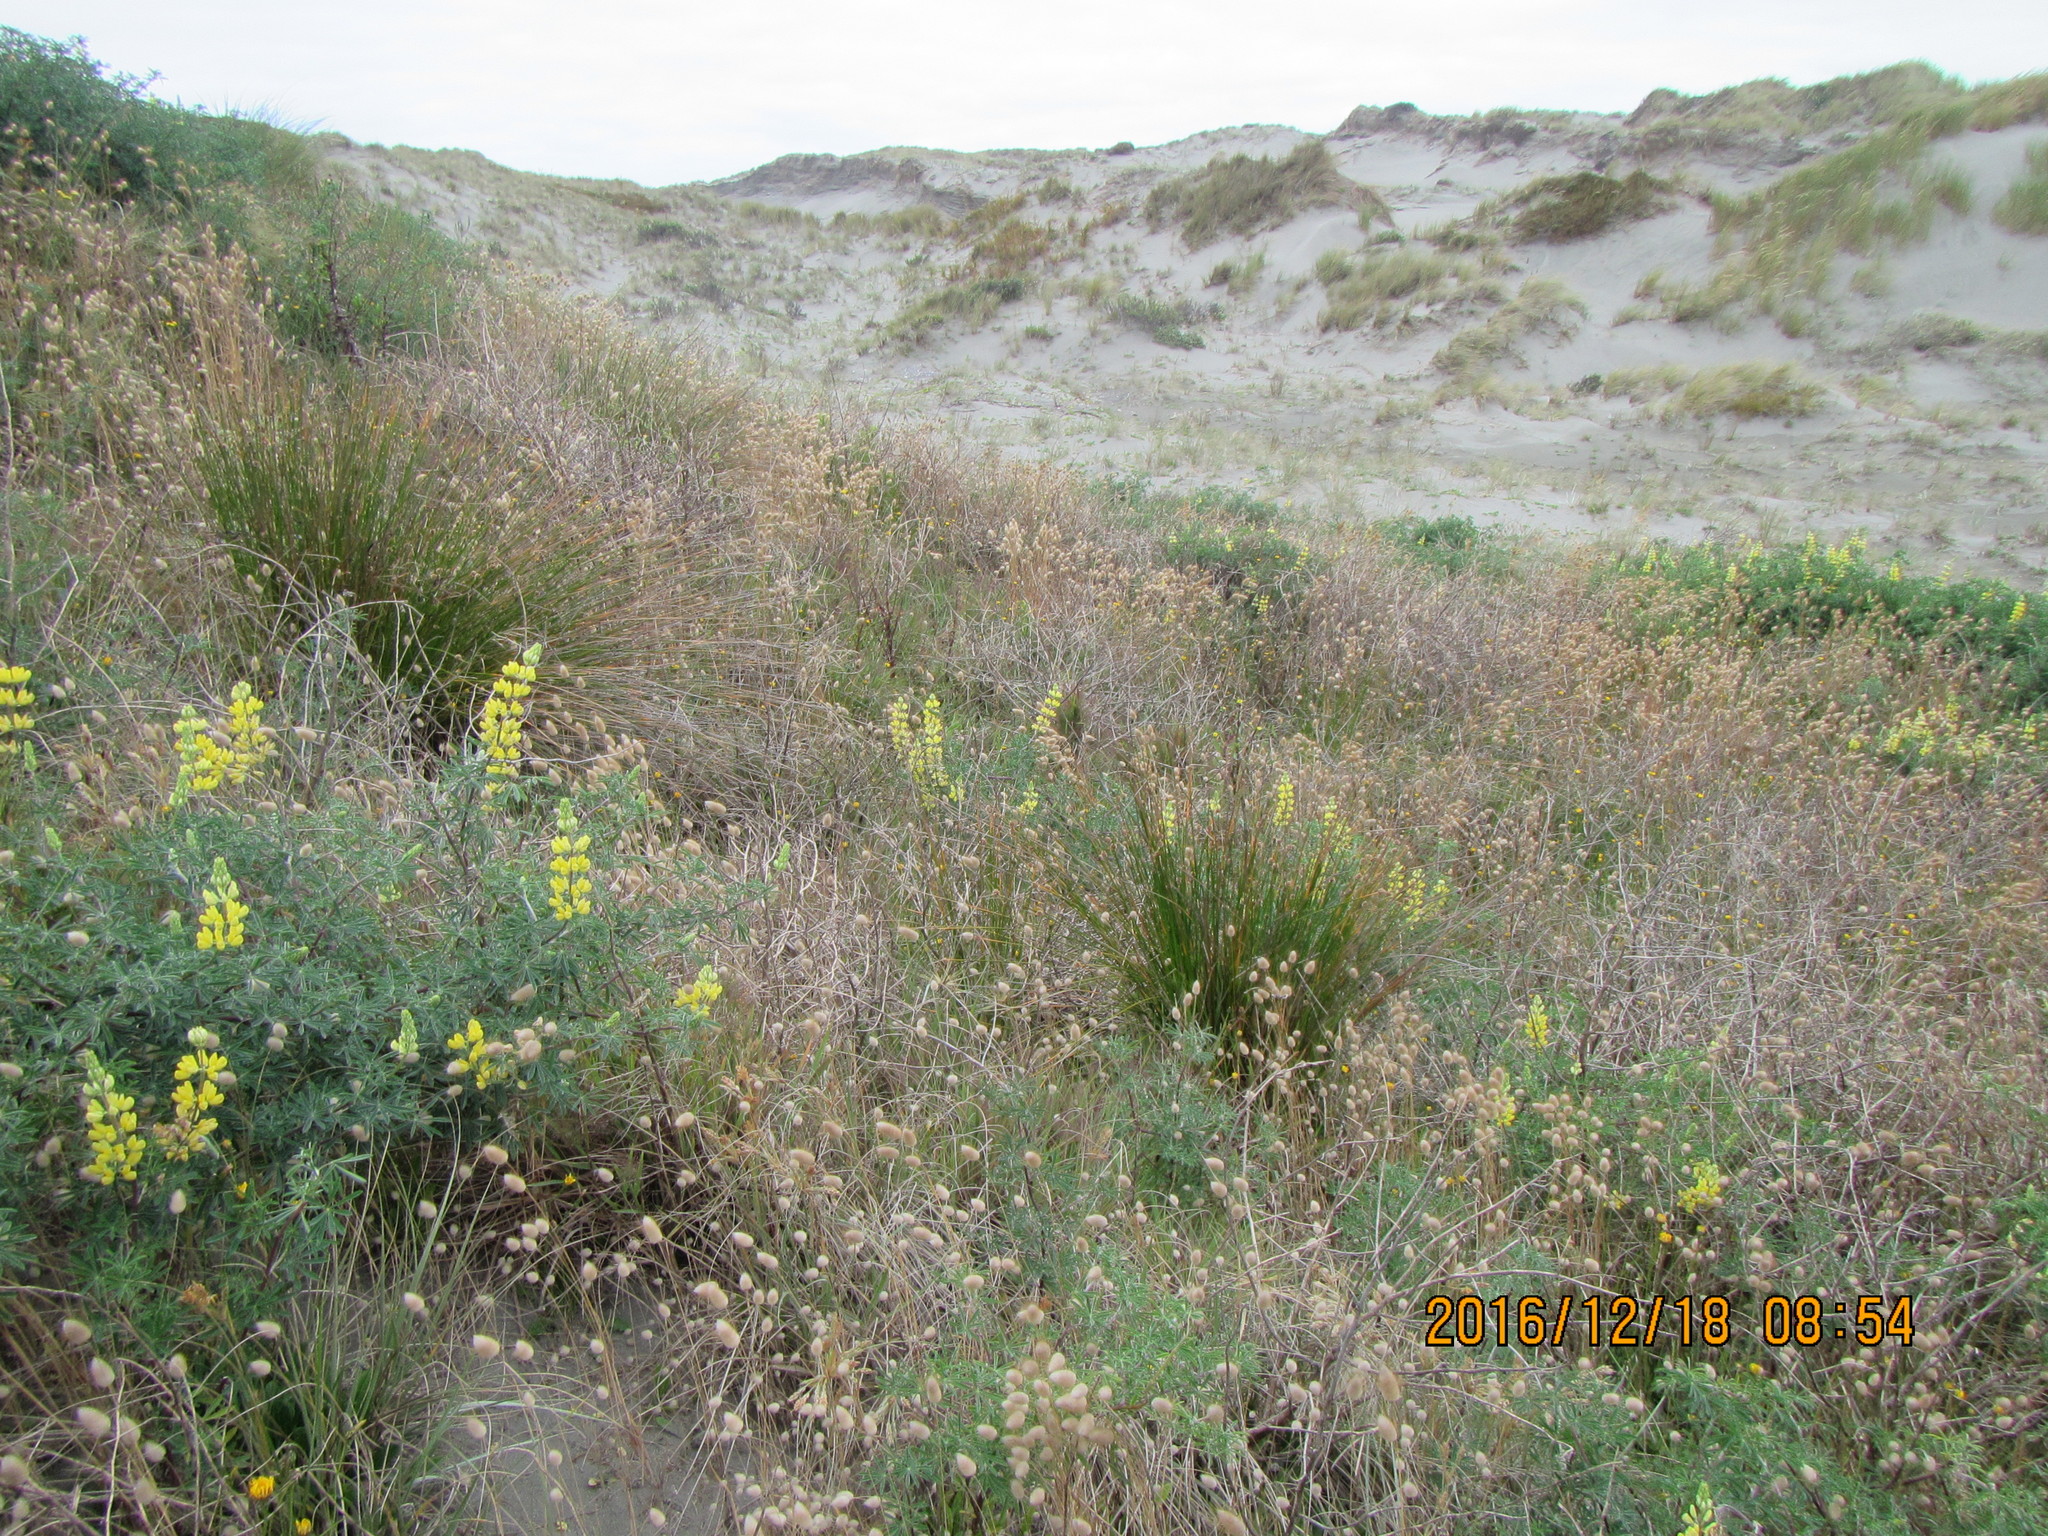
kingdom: Plantae
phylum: Tracheophyta
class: Liliopsida
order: Poales
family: Poaceae
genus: Lagurus
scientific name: Lagurus ovatus
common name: Hare's-tail
